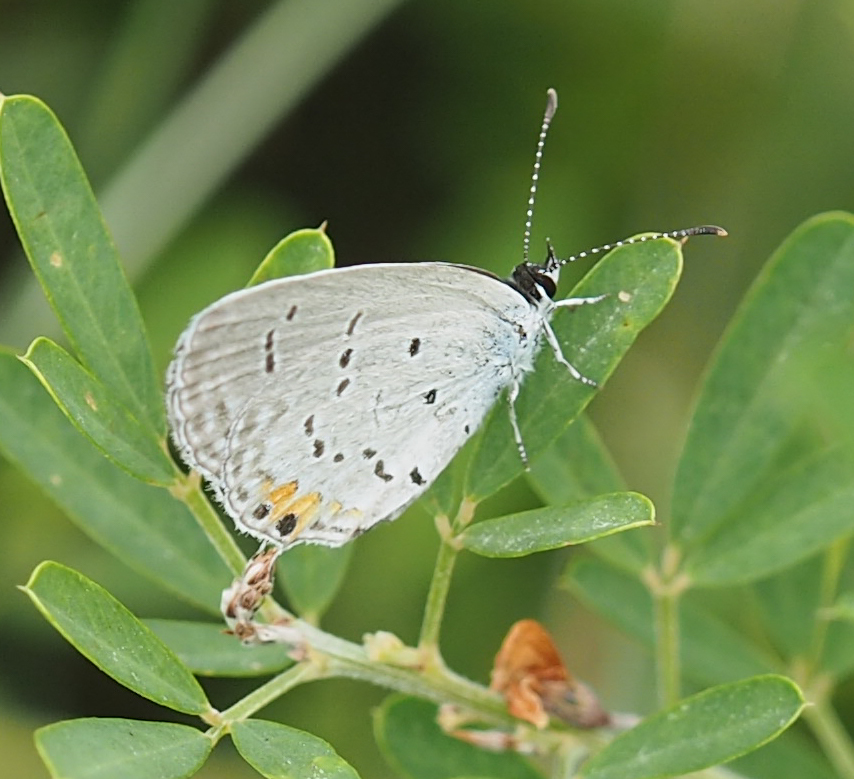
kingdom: Animalia
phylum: Arthropoda
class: Insecta
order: Lepidoptera
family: Lycaenidae
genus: Elkalyce
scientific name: Elkalyce comyntas
